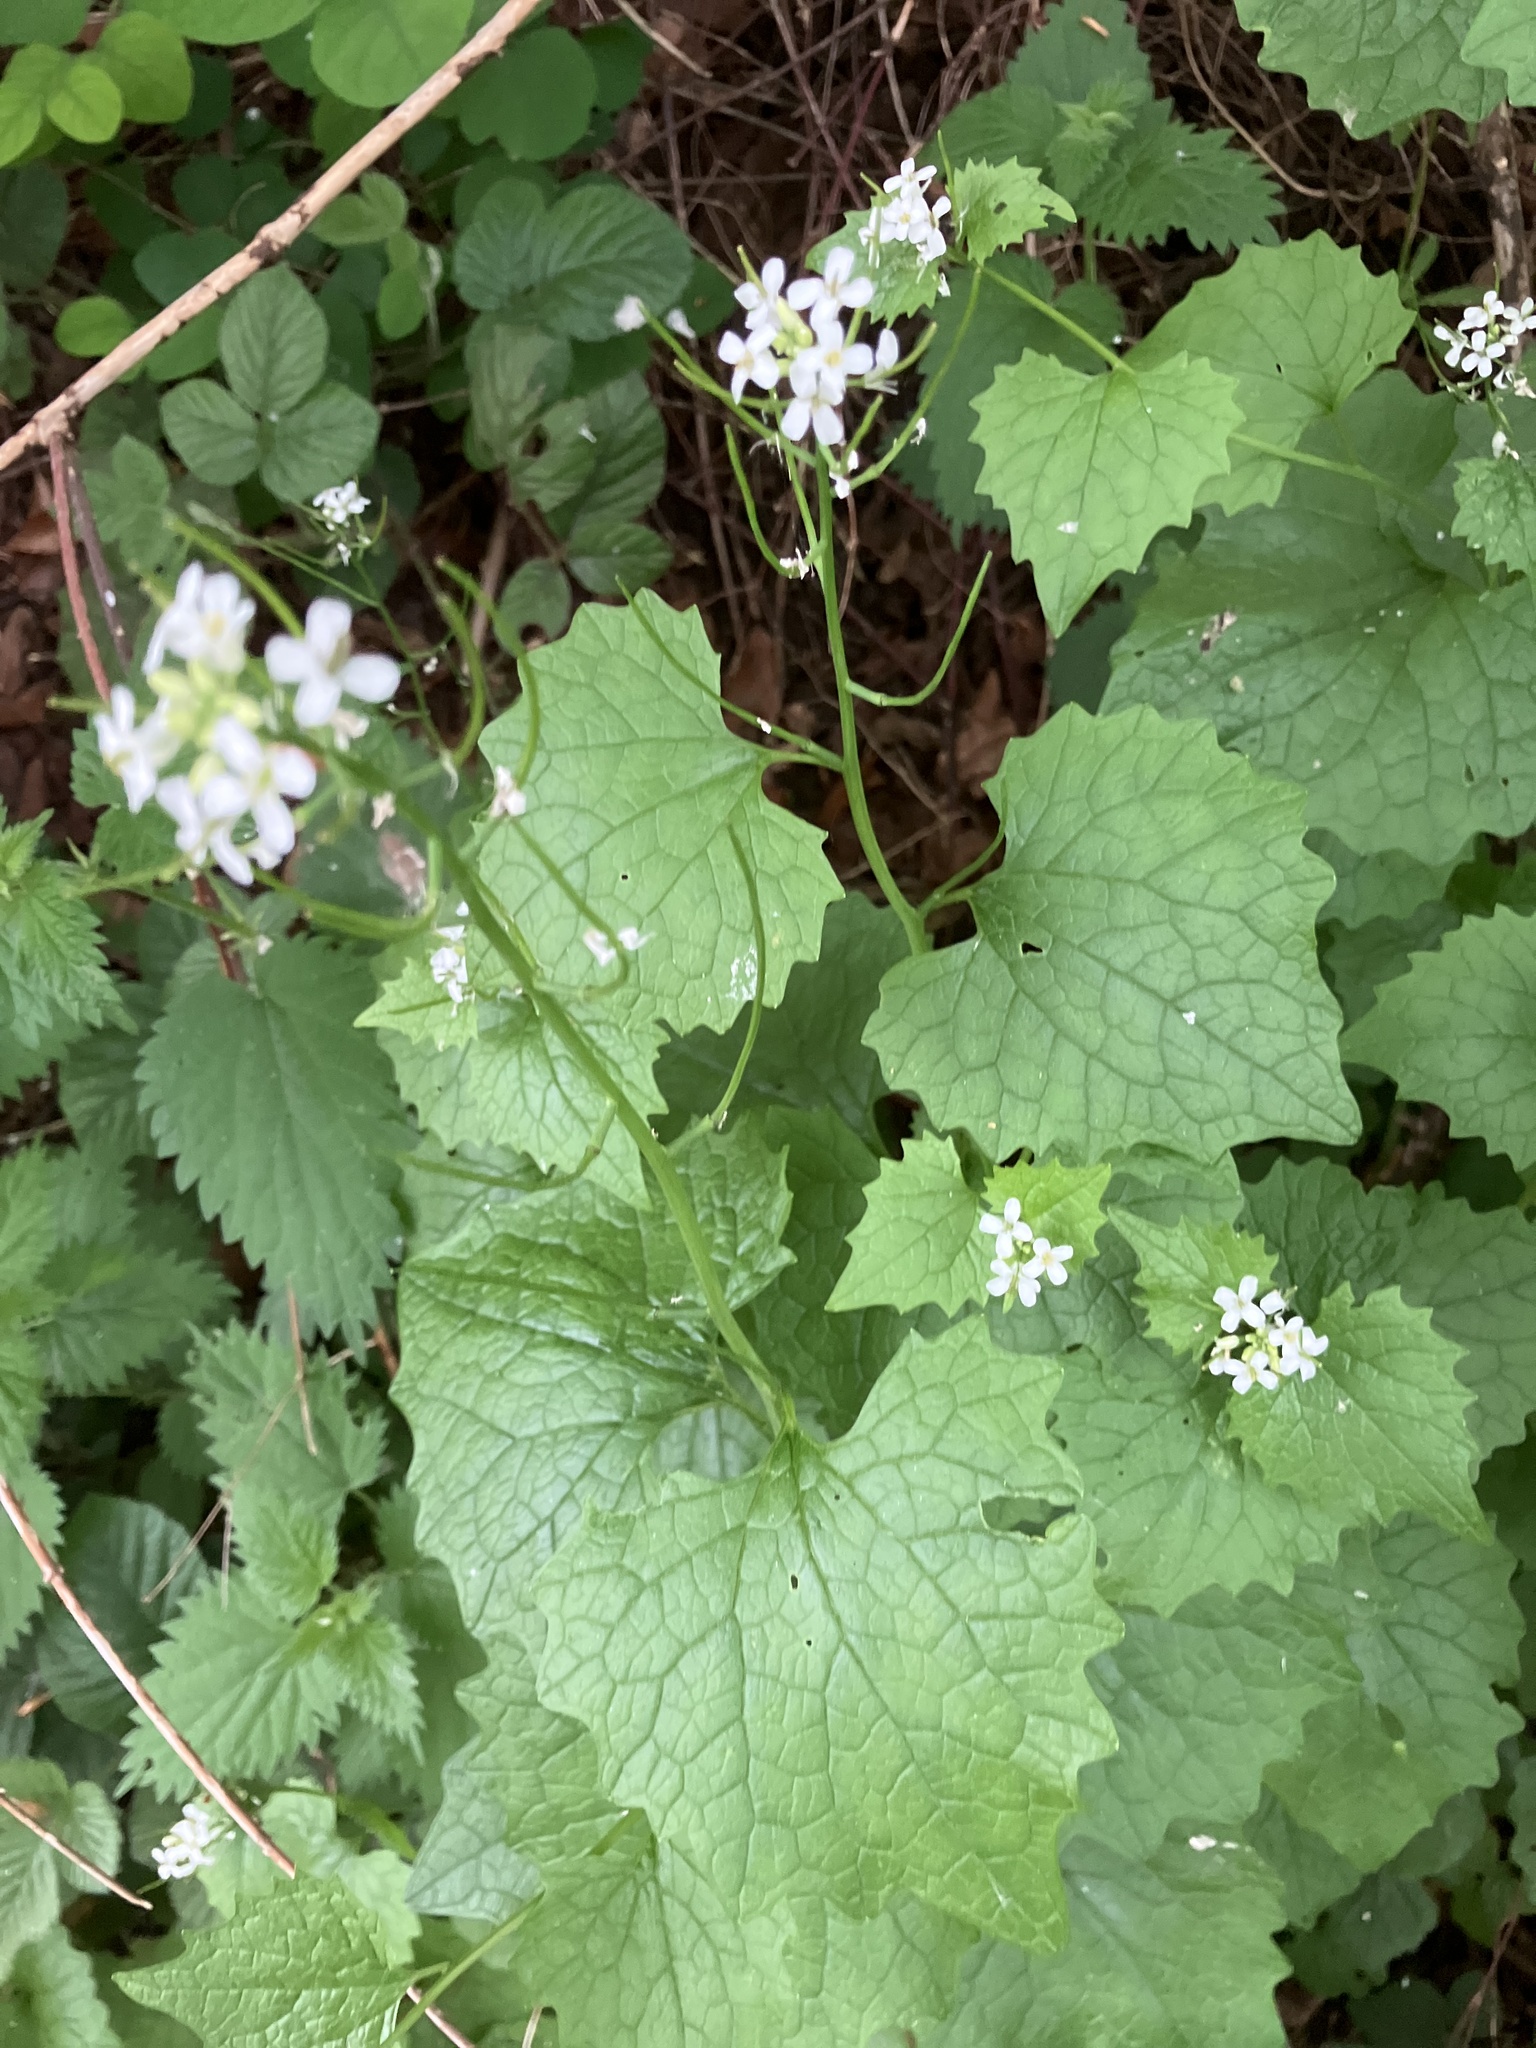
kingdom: Plantae
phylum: Tracheophyta
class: Magnoliopsida
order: Brassicales
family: Brassicaceae
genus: Alliaria
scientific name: Alliaria petiolata
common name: Garlic mustard
